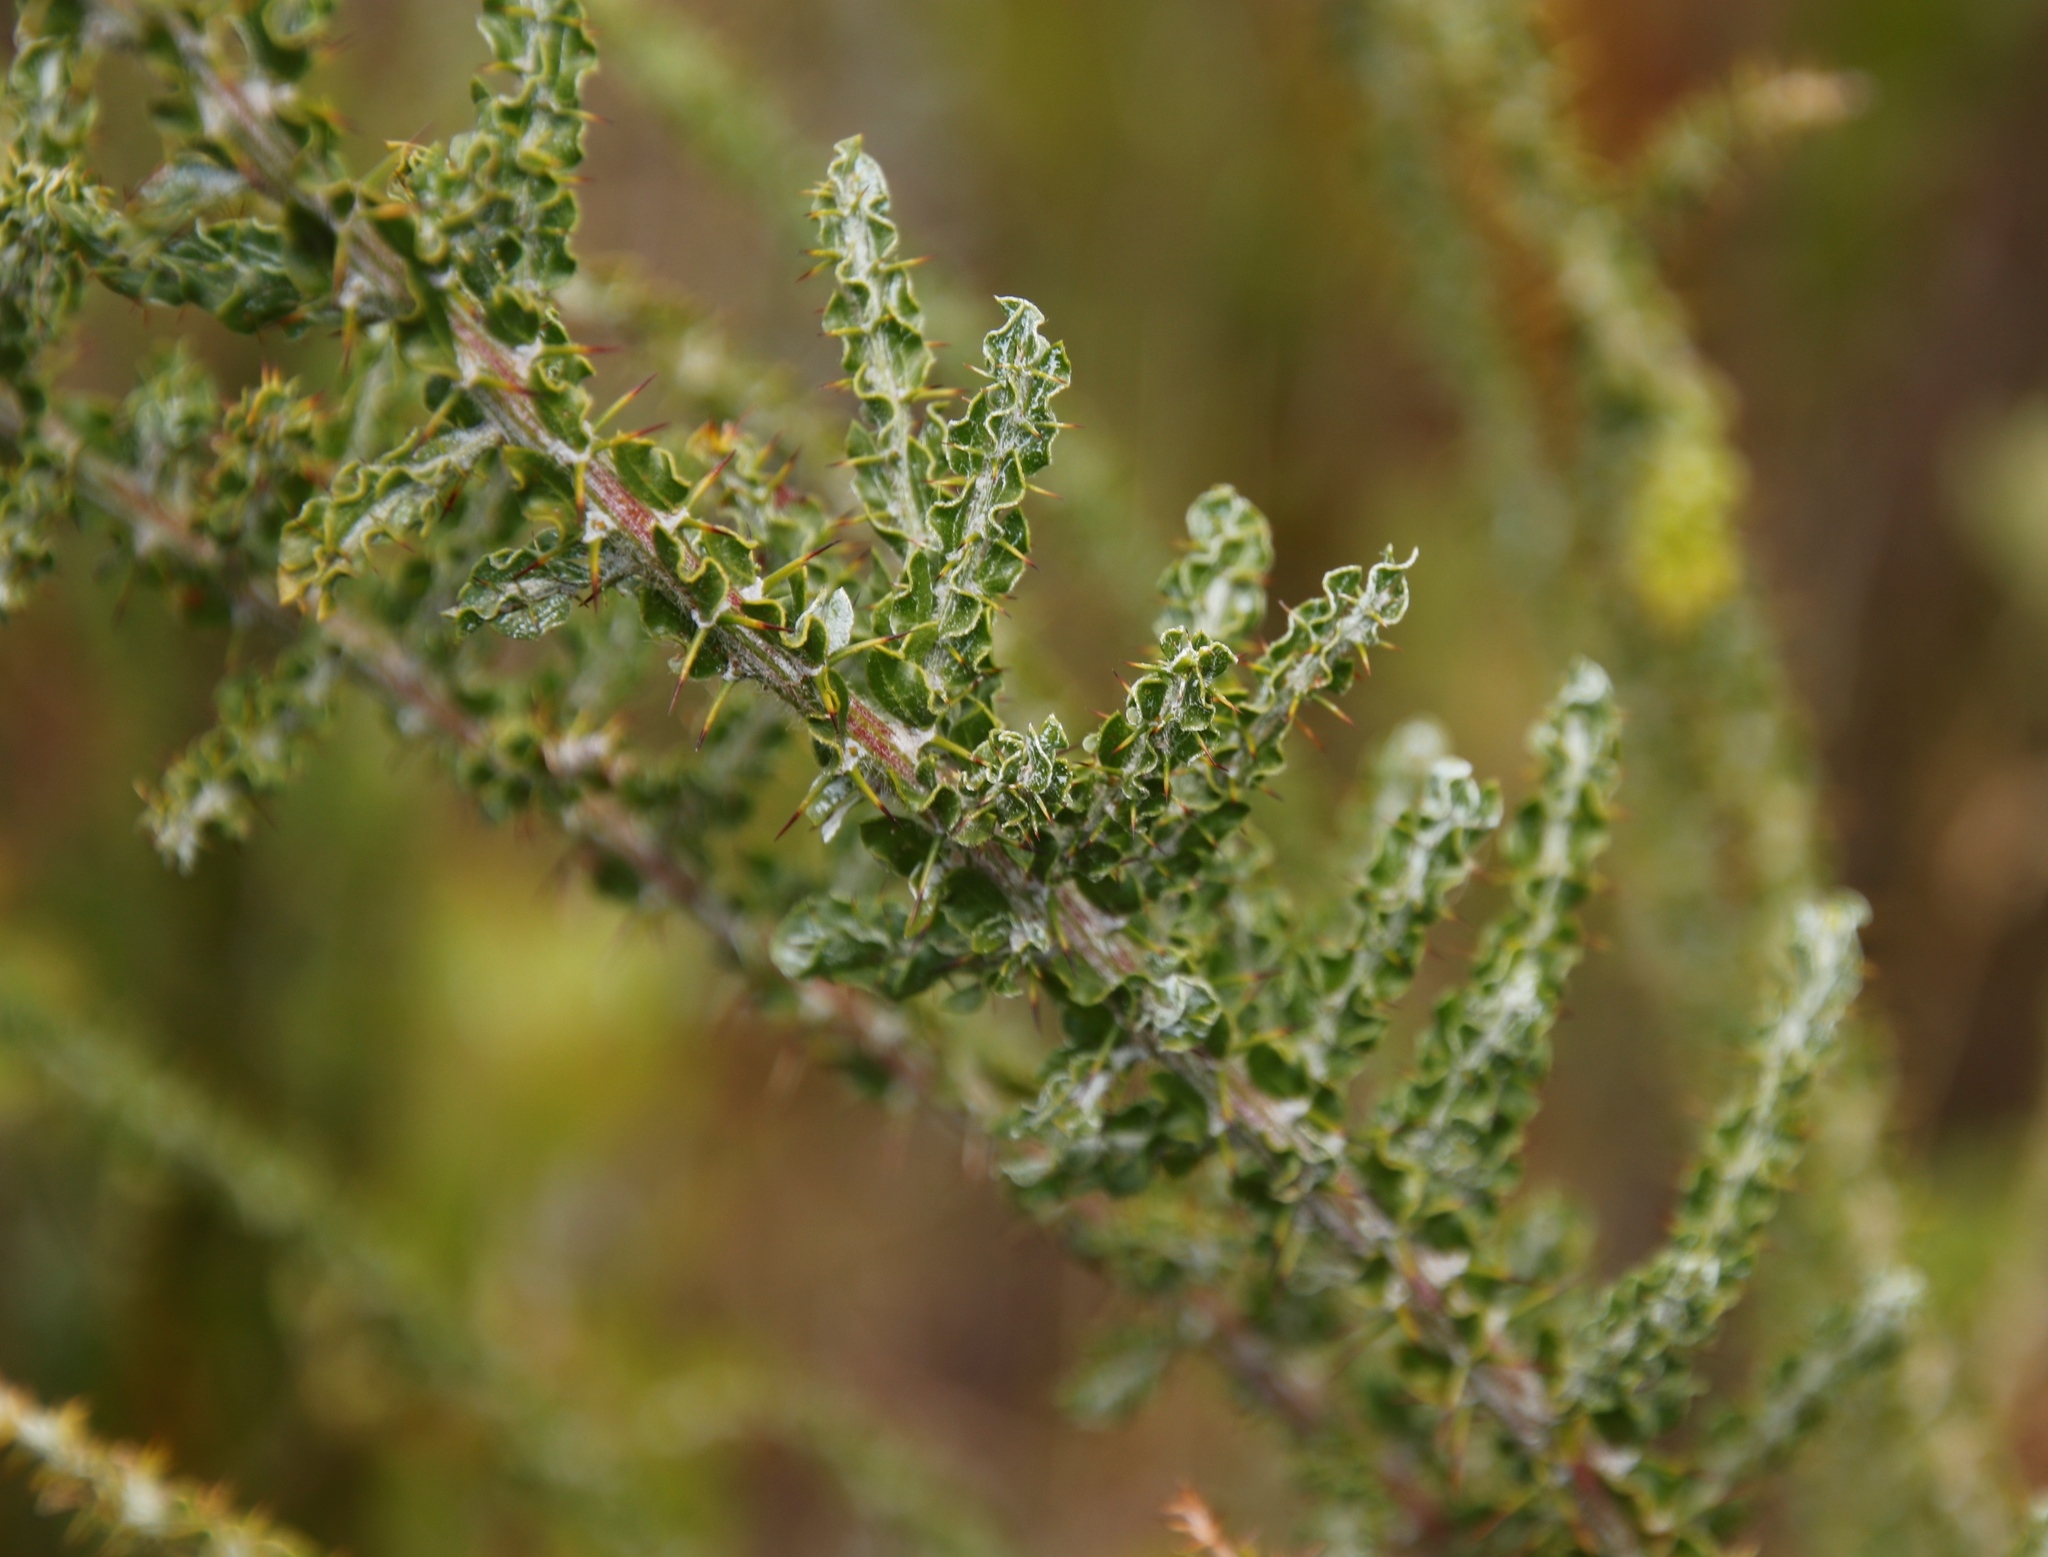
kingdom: Plantae
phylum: Tracheophyta
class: Magnoliopsida
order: Fabales
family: Fabaceae
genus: Acacia
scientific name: Acacia paradoxa
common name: Paradox acacia
